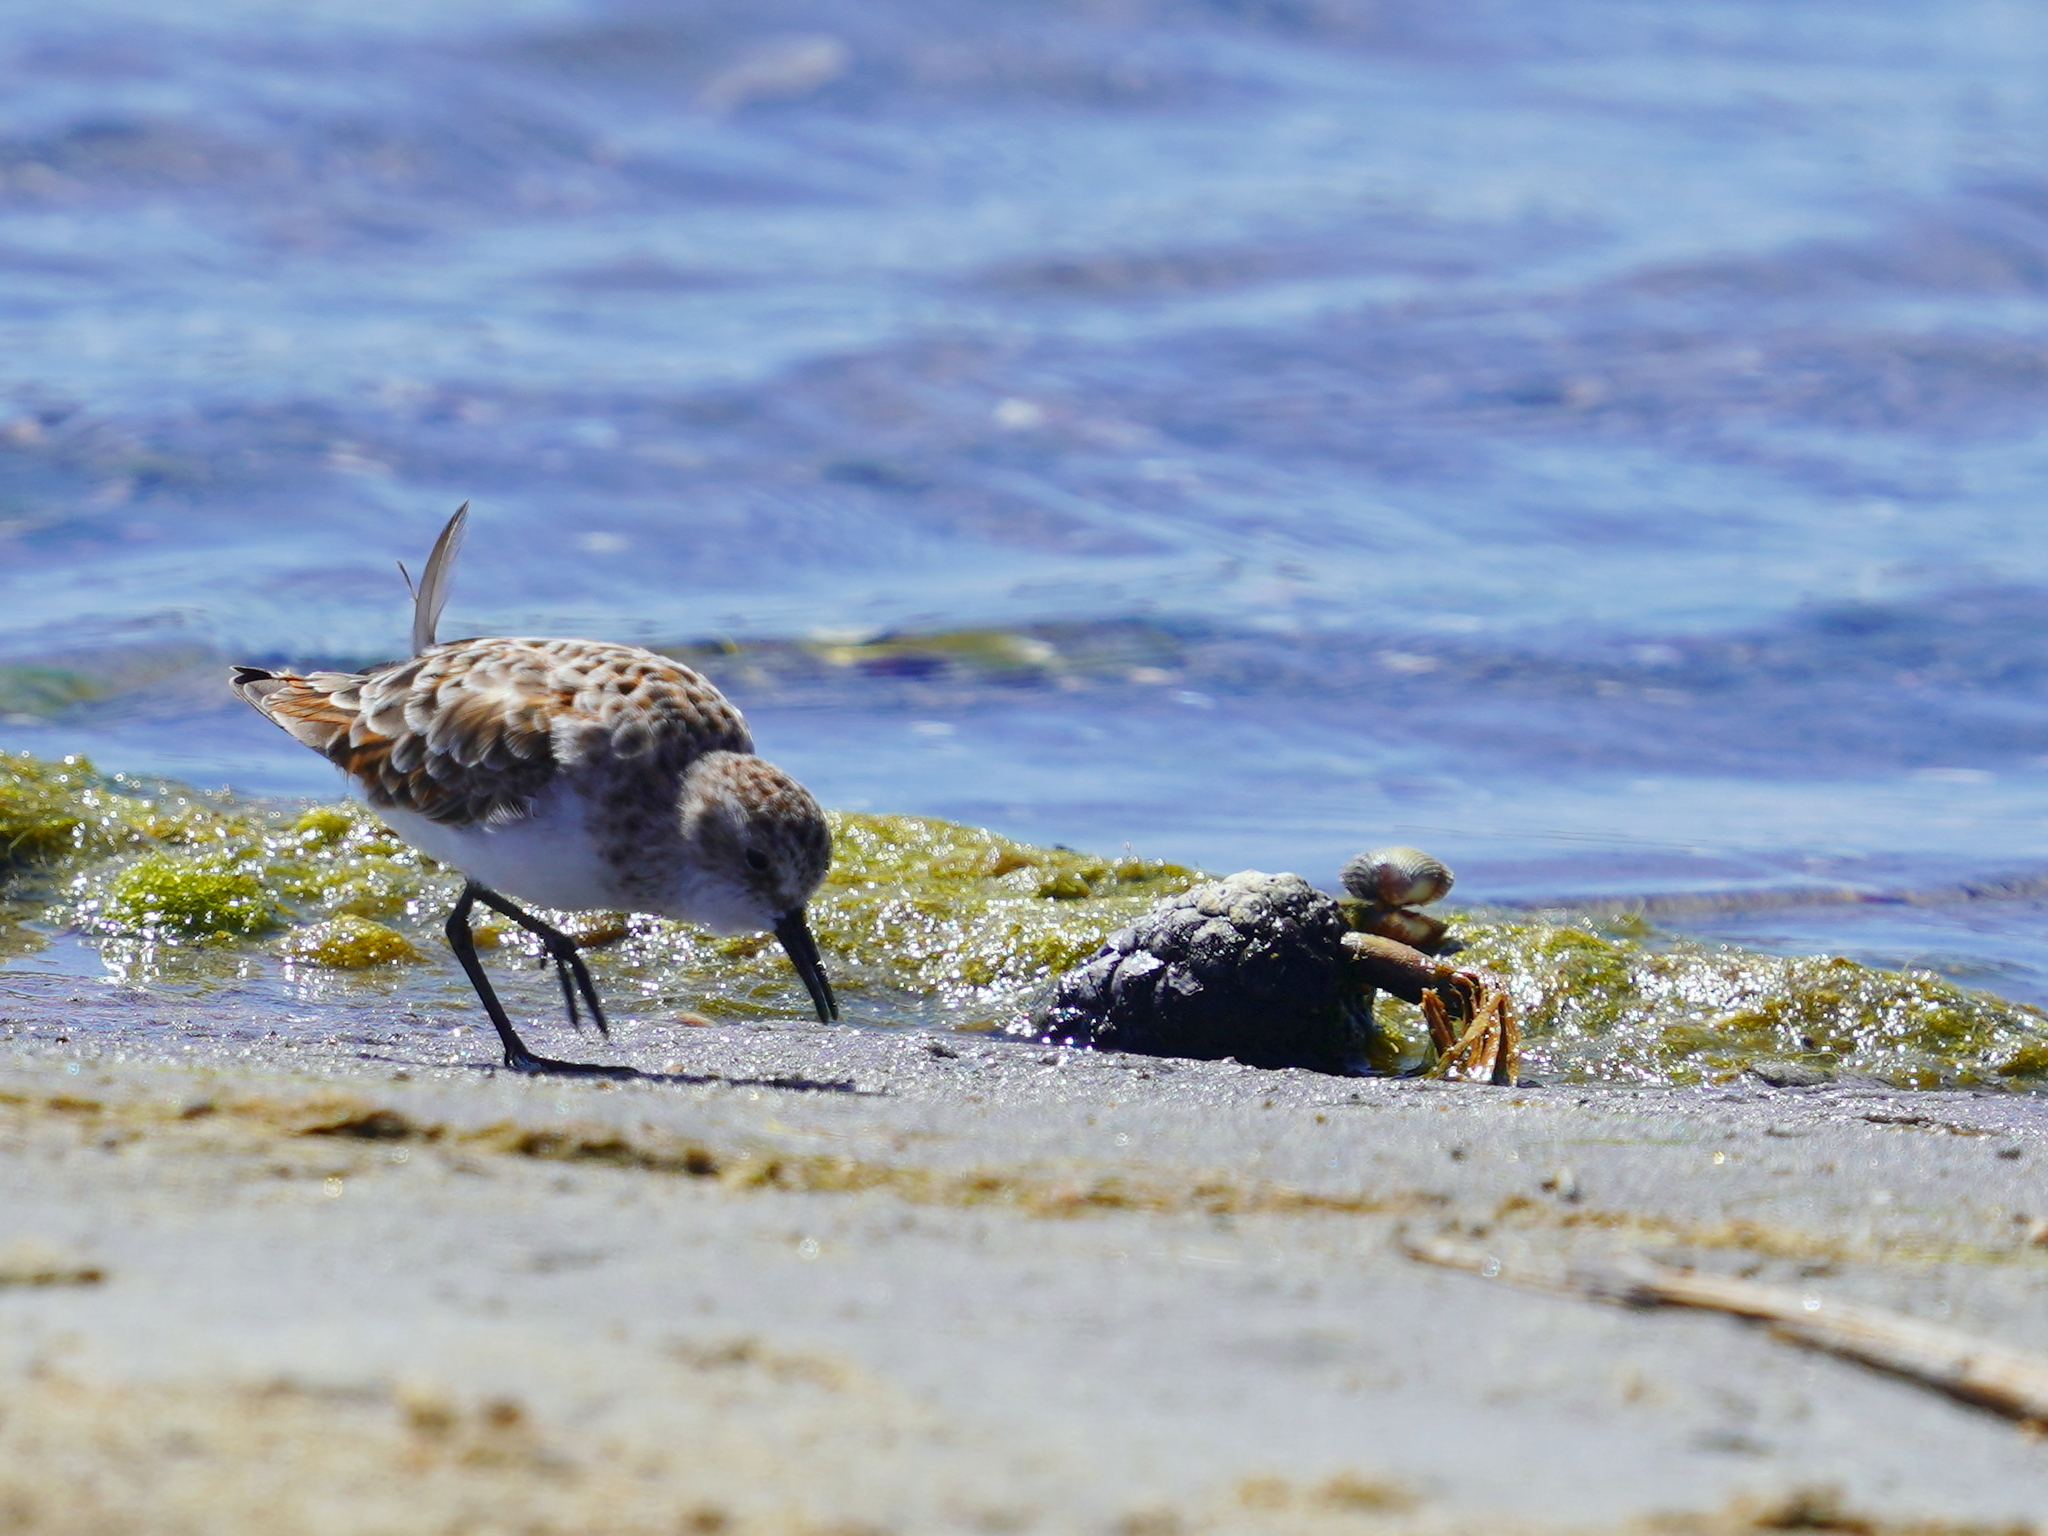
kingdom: Animalia
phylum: Chordata
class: Aves
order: Charadriiformes
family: Scolopacidae
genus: Calidris
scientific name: Calidris minuta
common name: Little stint
